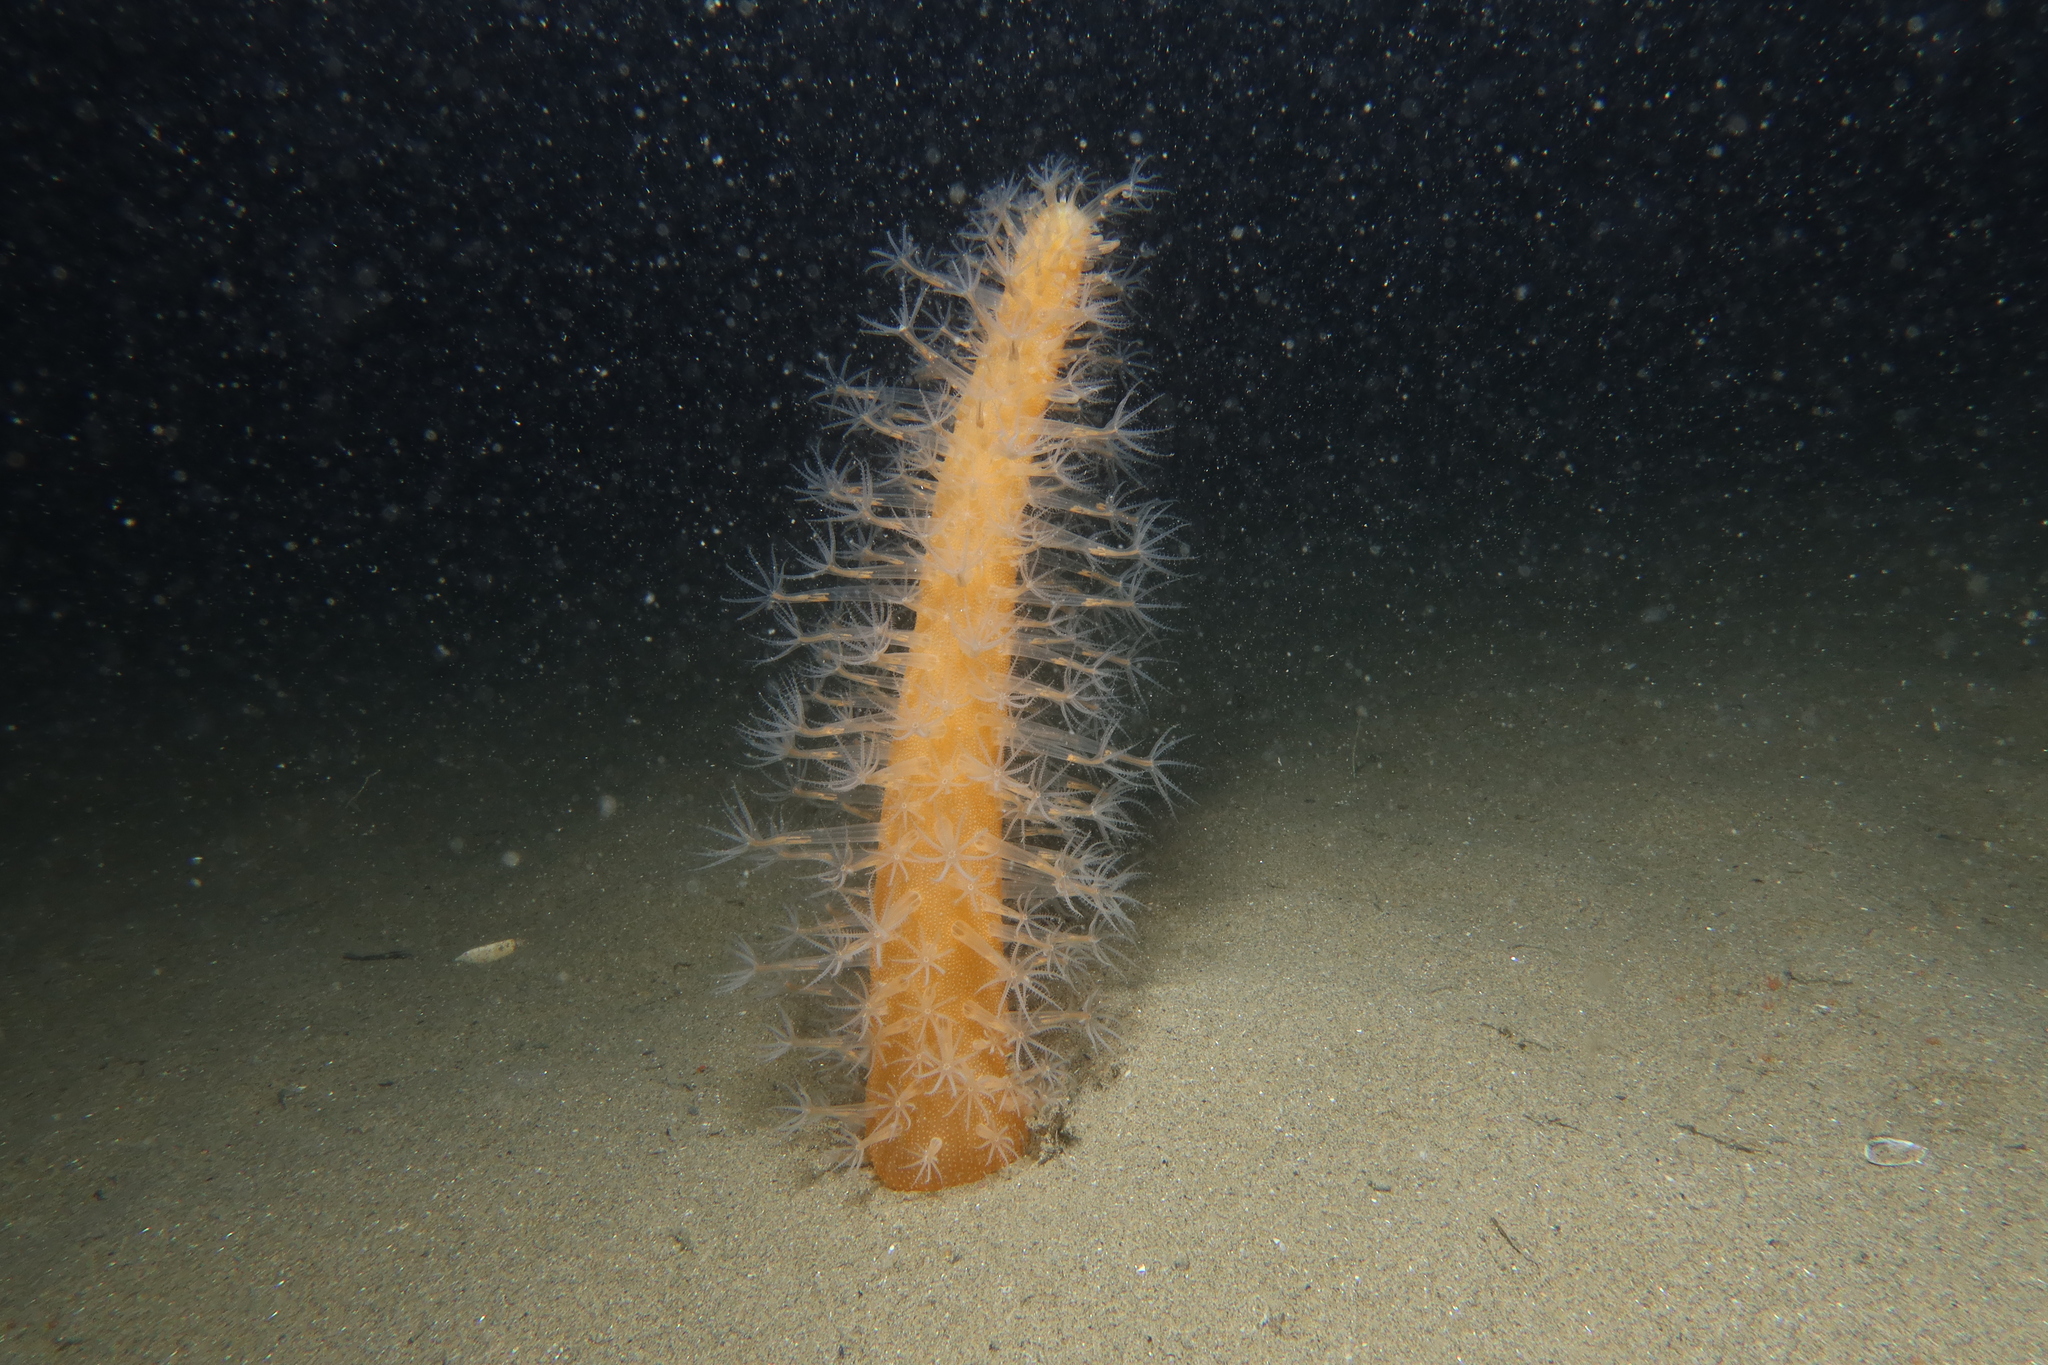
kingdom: Animalia
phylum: Cnidaria
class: Anthozoa
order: Scleralcyonacea
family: Veretillidae
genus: Veretillum
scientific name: Veretillum cynomorium
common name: Finger-shaped sea-pen
